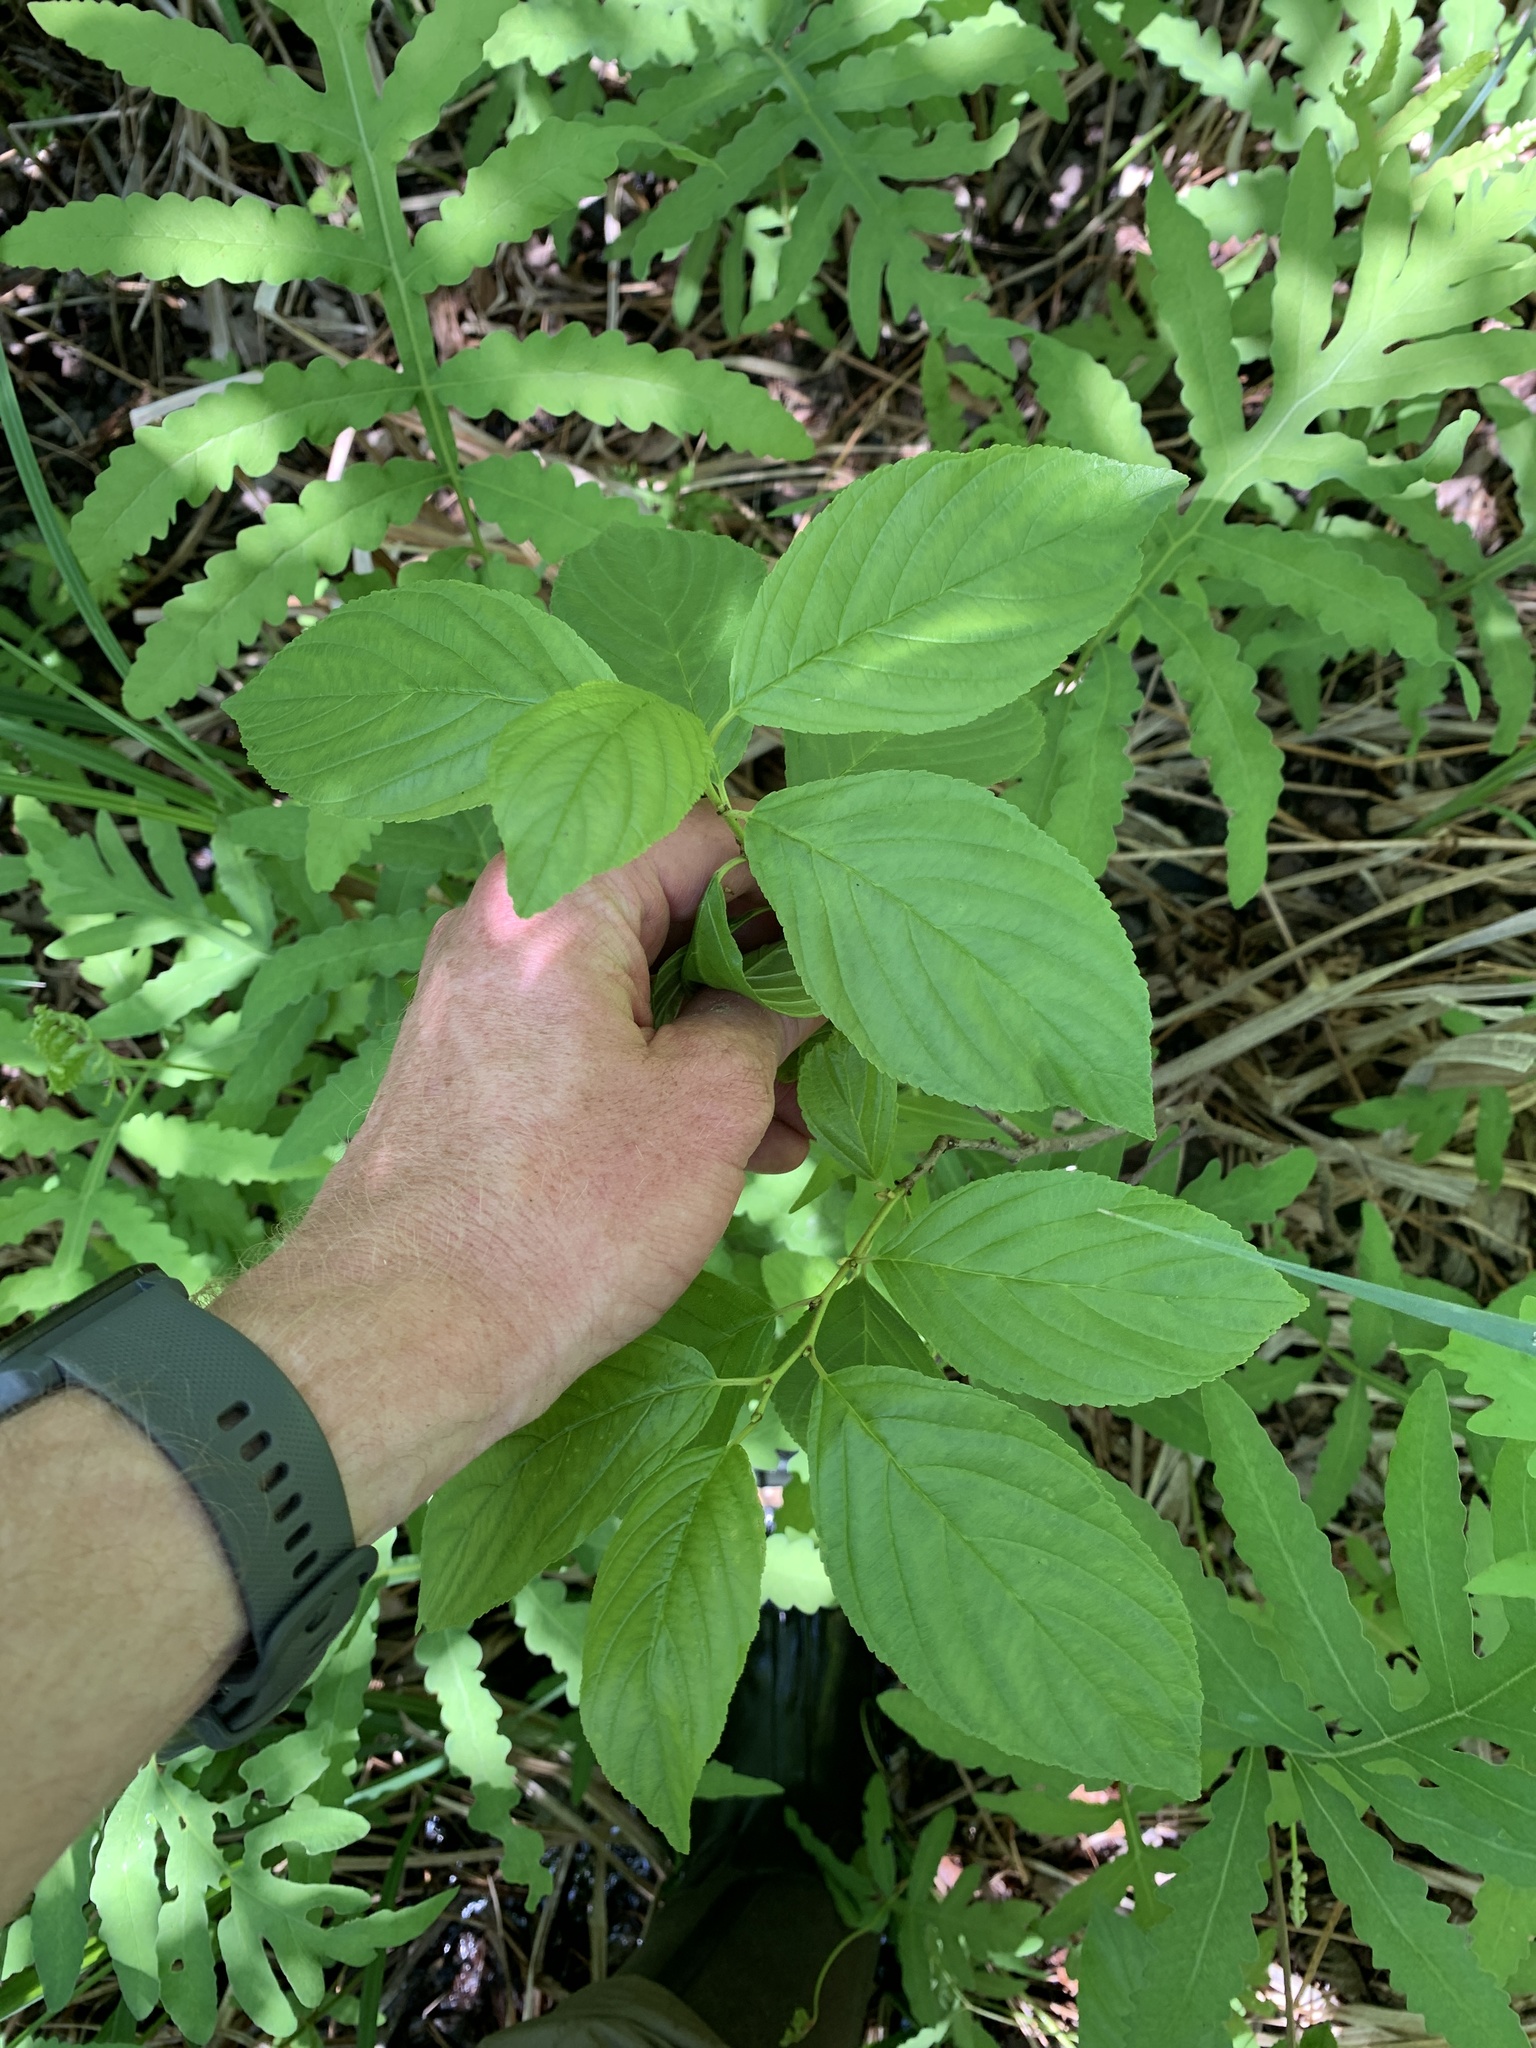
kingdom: Plantae
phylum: Tracheophyta
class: Magnoliopsida
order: Rosales
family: Rhamnaceae
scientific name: Rhamnaceae
